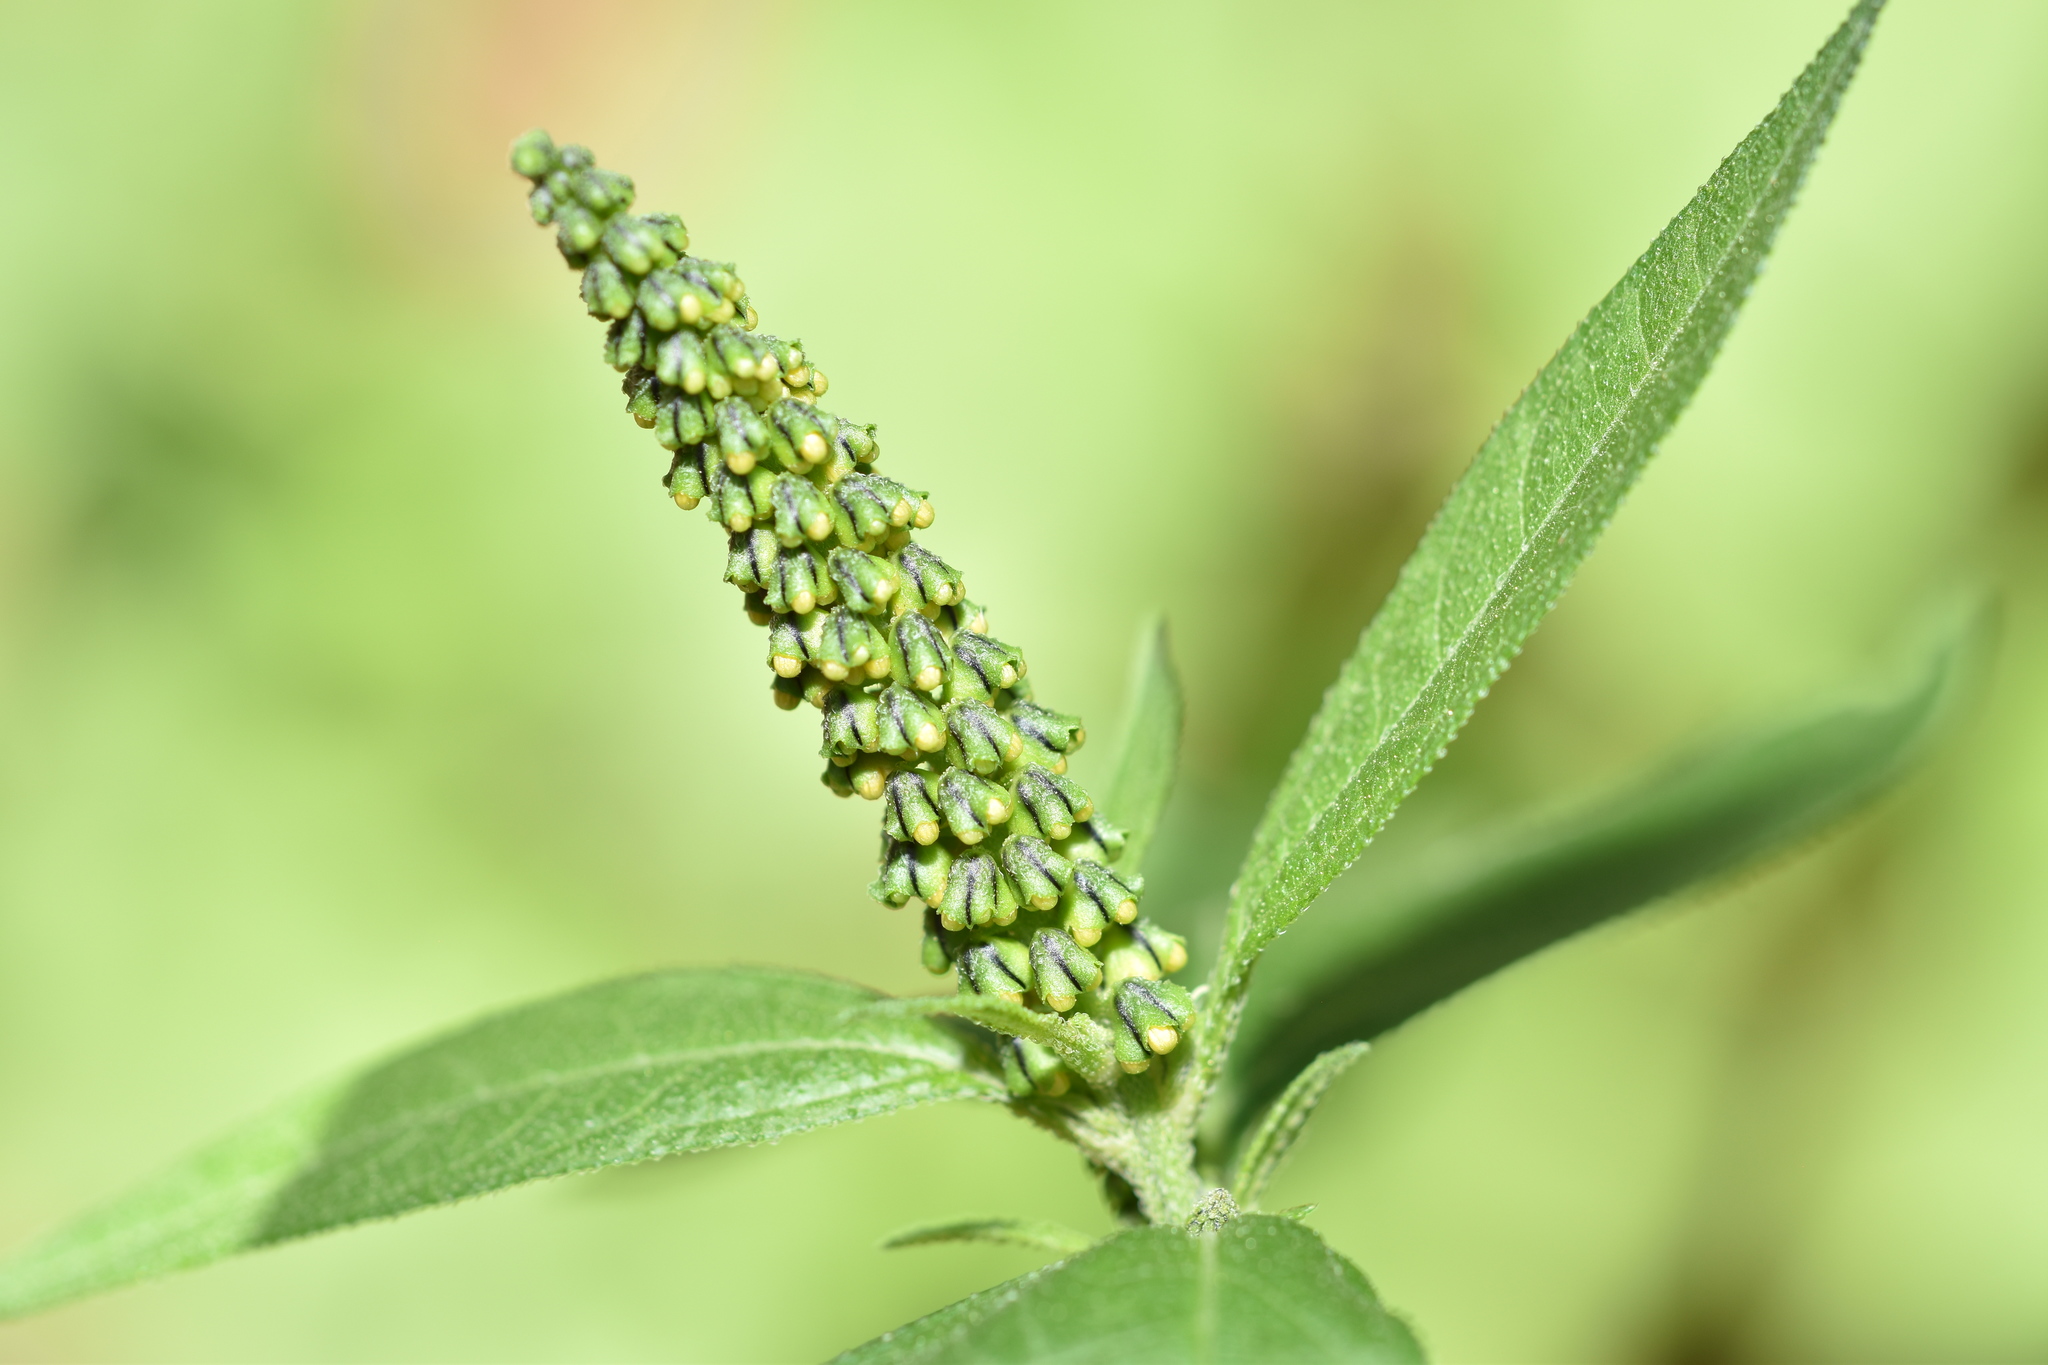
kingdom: Plantae
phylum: Tracheophyta
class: Magnoliopsida
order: Asterales
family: Asteraceae
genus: Ambrosia
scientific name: Ambrosia trifida
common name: Giant ragweed
